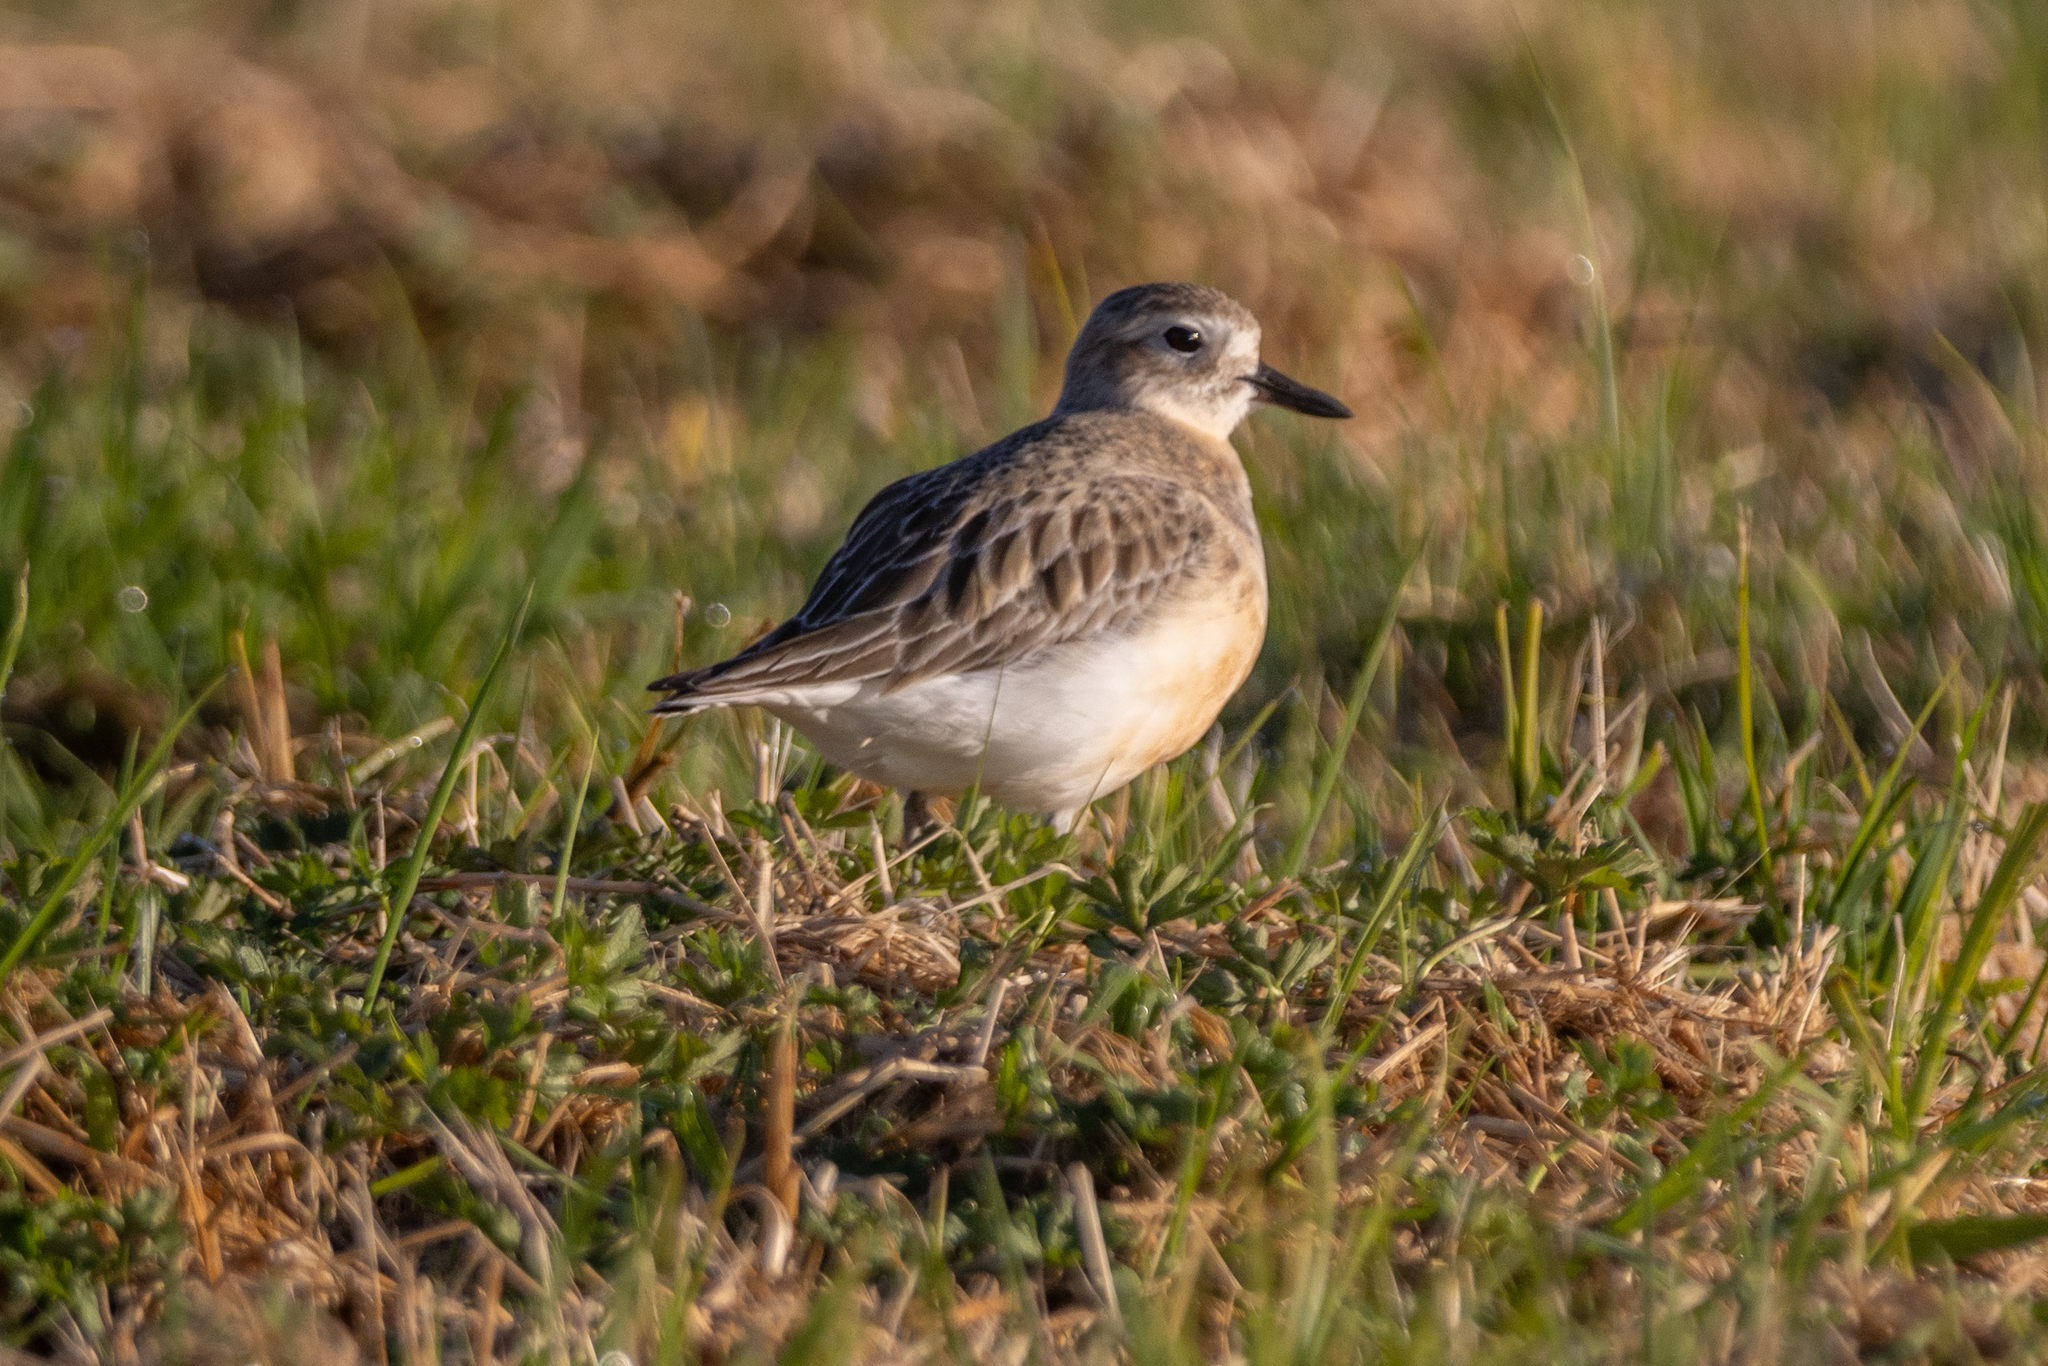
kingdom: Animalia
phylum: Chordata
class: Aves
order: Charadriiformes
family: Charadriidae
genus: Anarhynchus
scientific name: Anarhynchus
